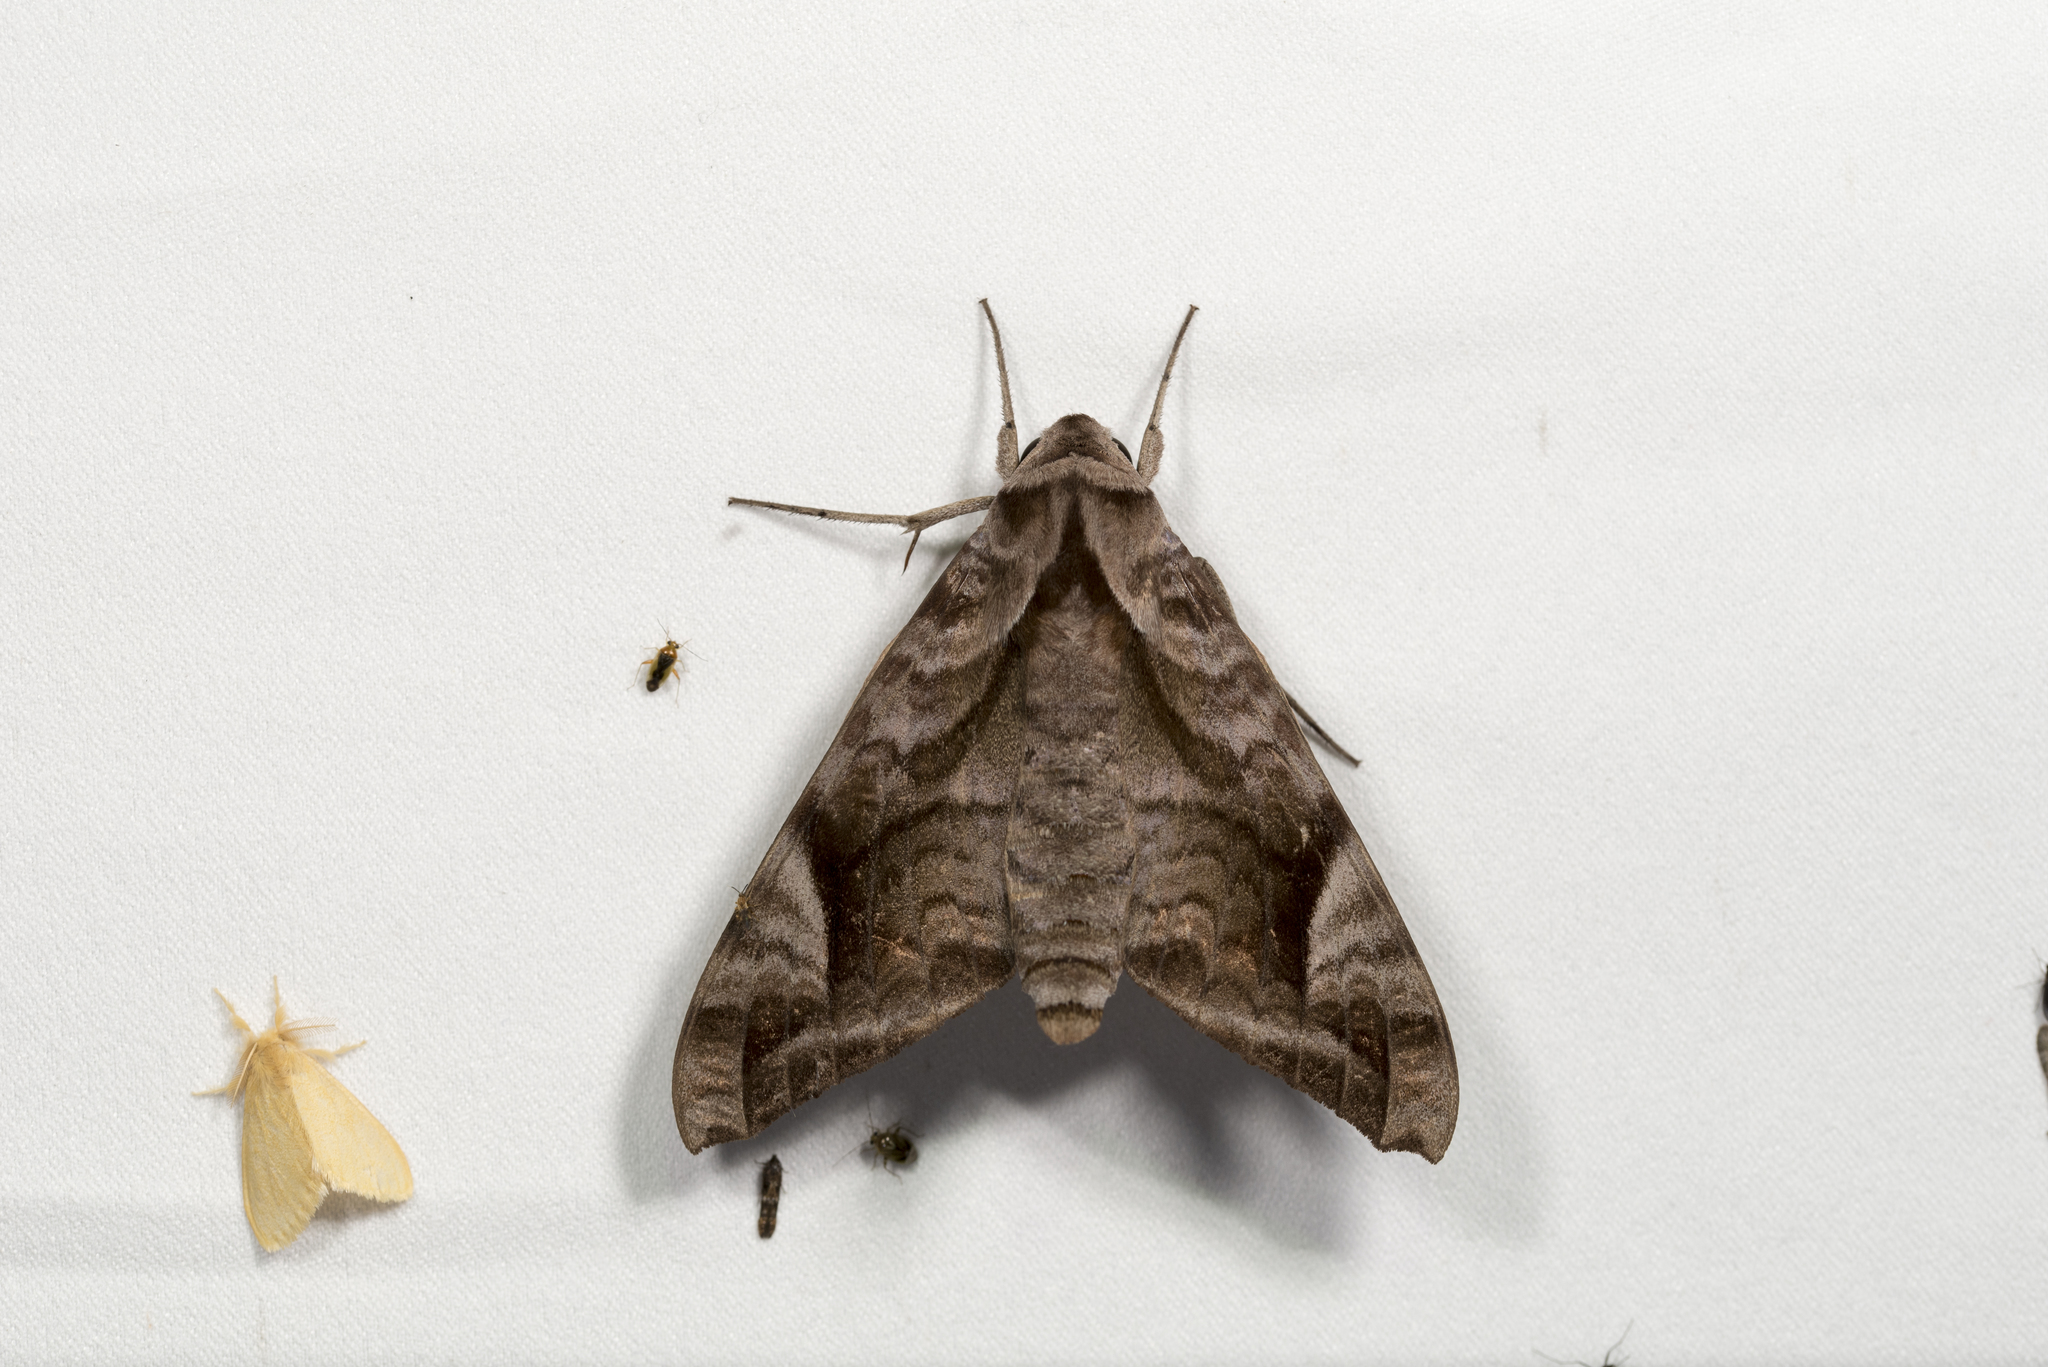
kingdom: Animalia
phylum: Arthropoda
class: Insecta
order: Lepidoptera
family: Sphingidae
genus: Acosmeryx
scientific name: Acosmeryx naga
